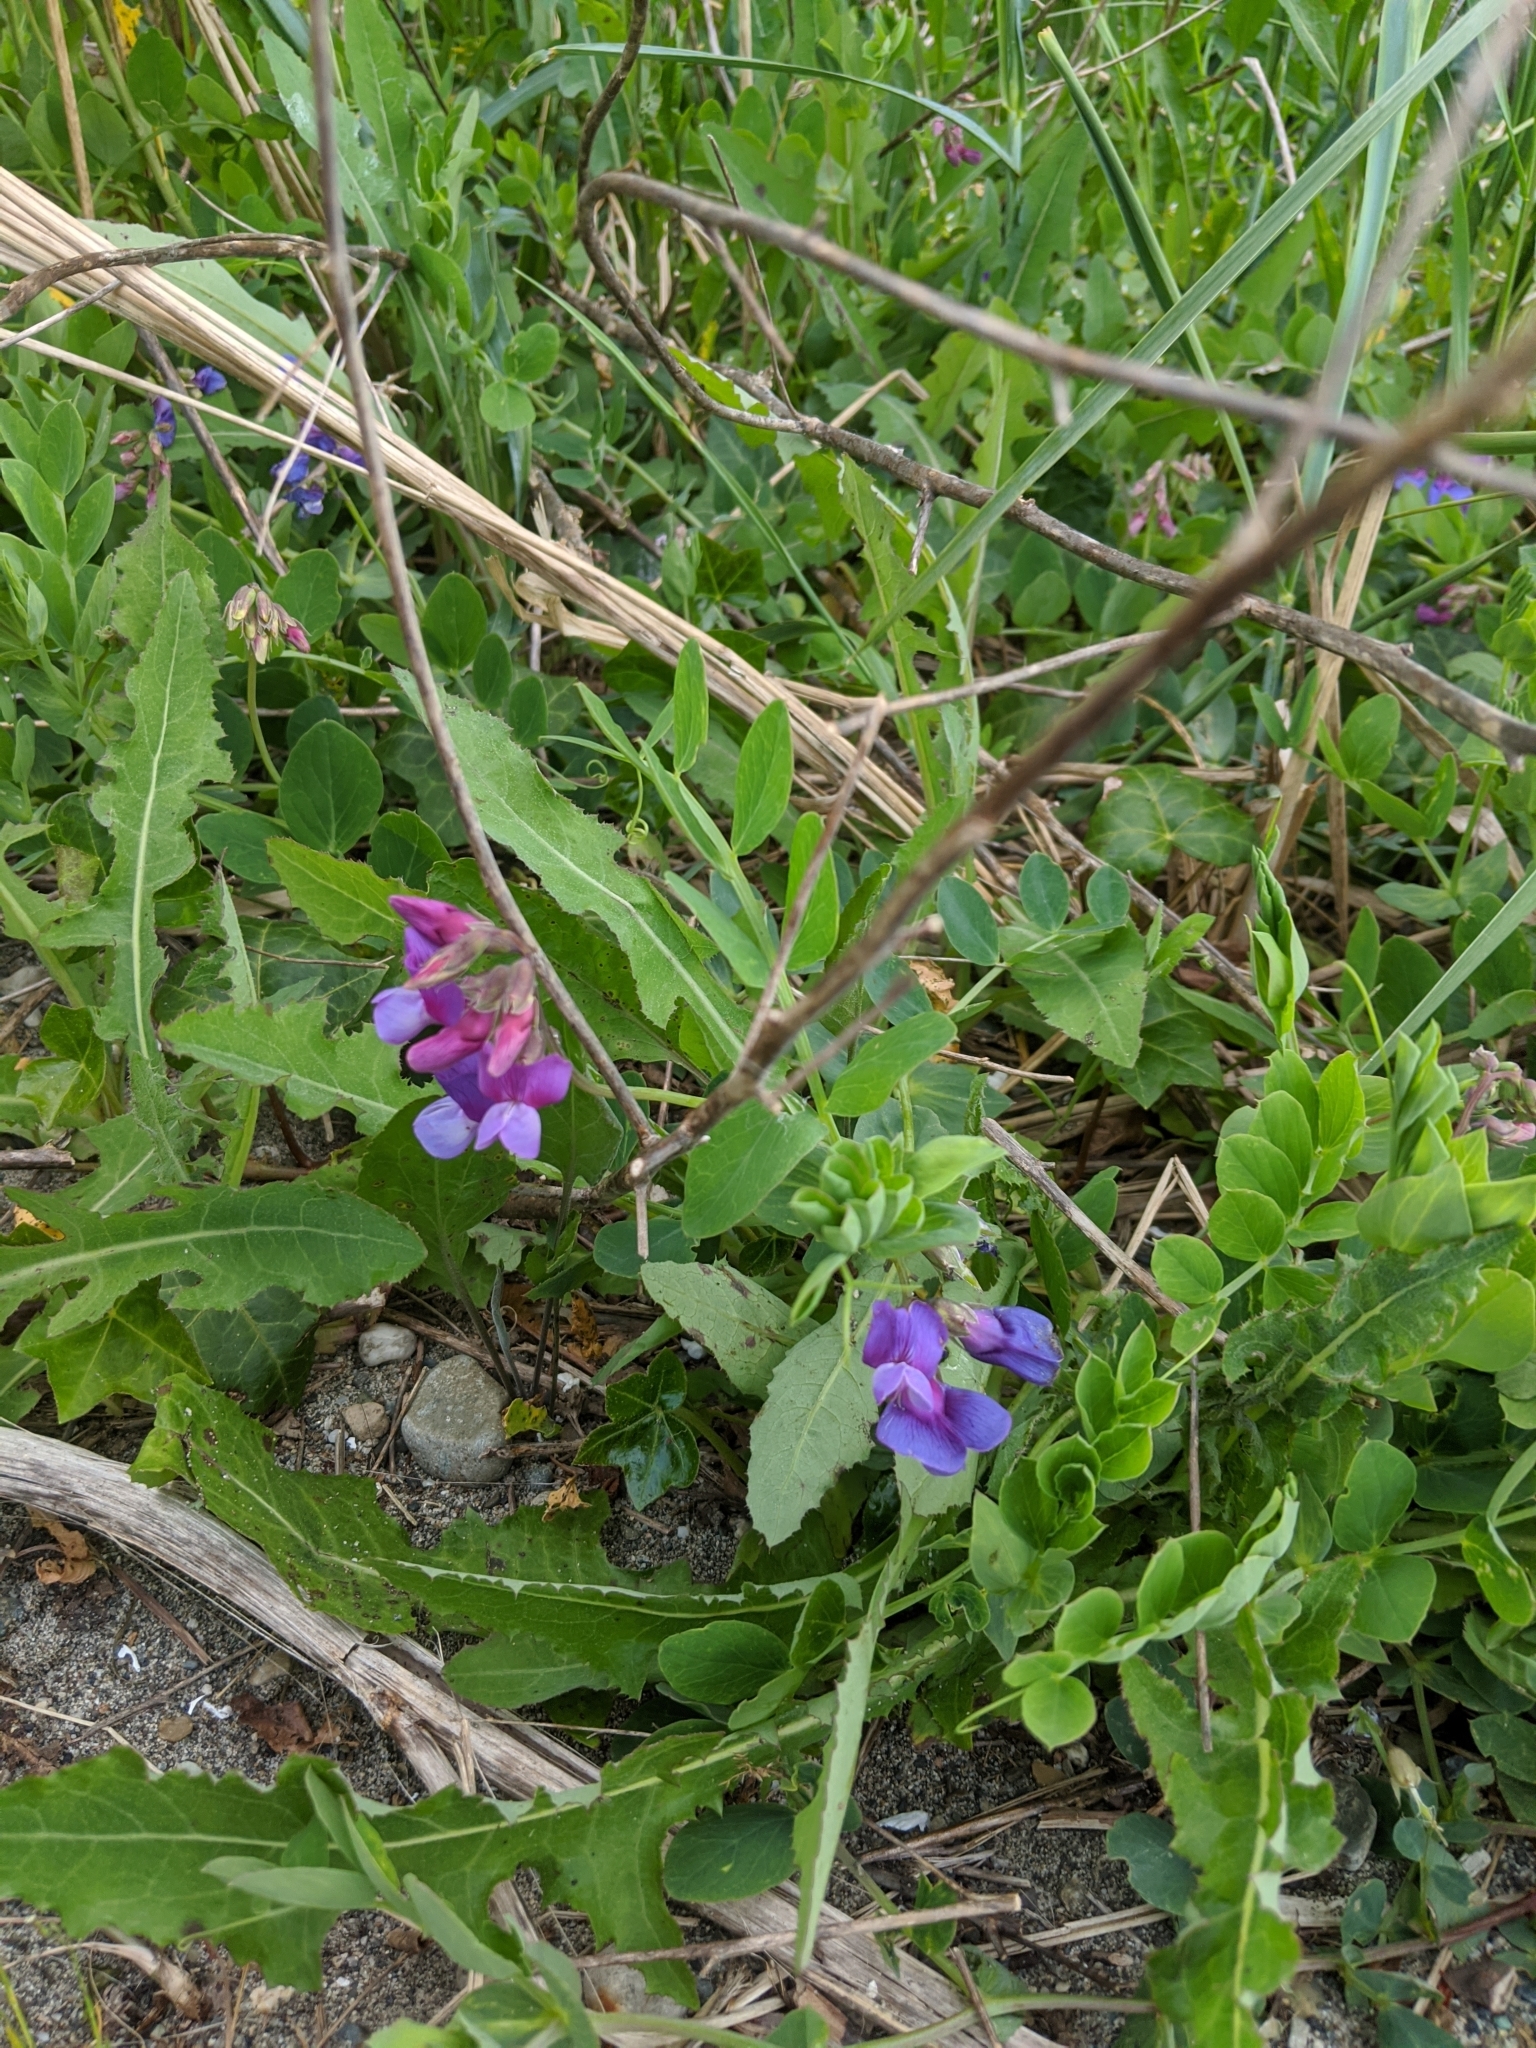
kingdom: Plantae
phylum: Tracheophyta
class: Magnoliopsida
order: Fabales
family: Fabaceae
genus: Lathyrus
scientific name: Lathyrus japonicus
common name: Sea pea
